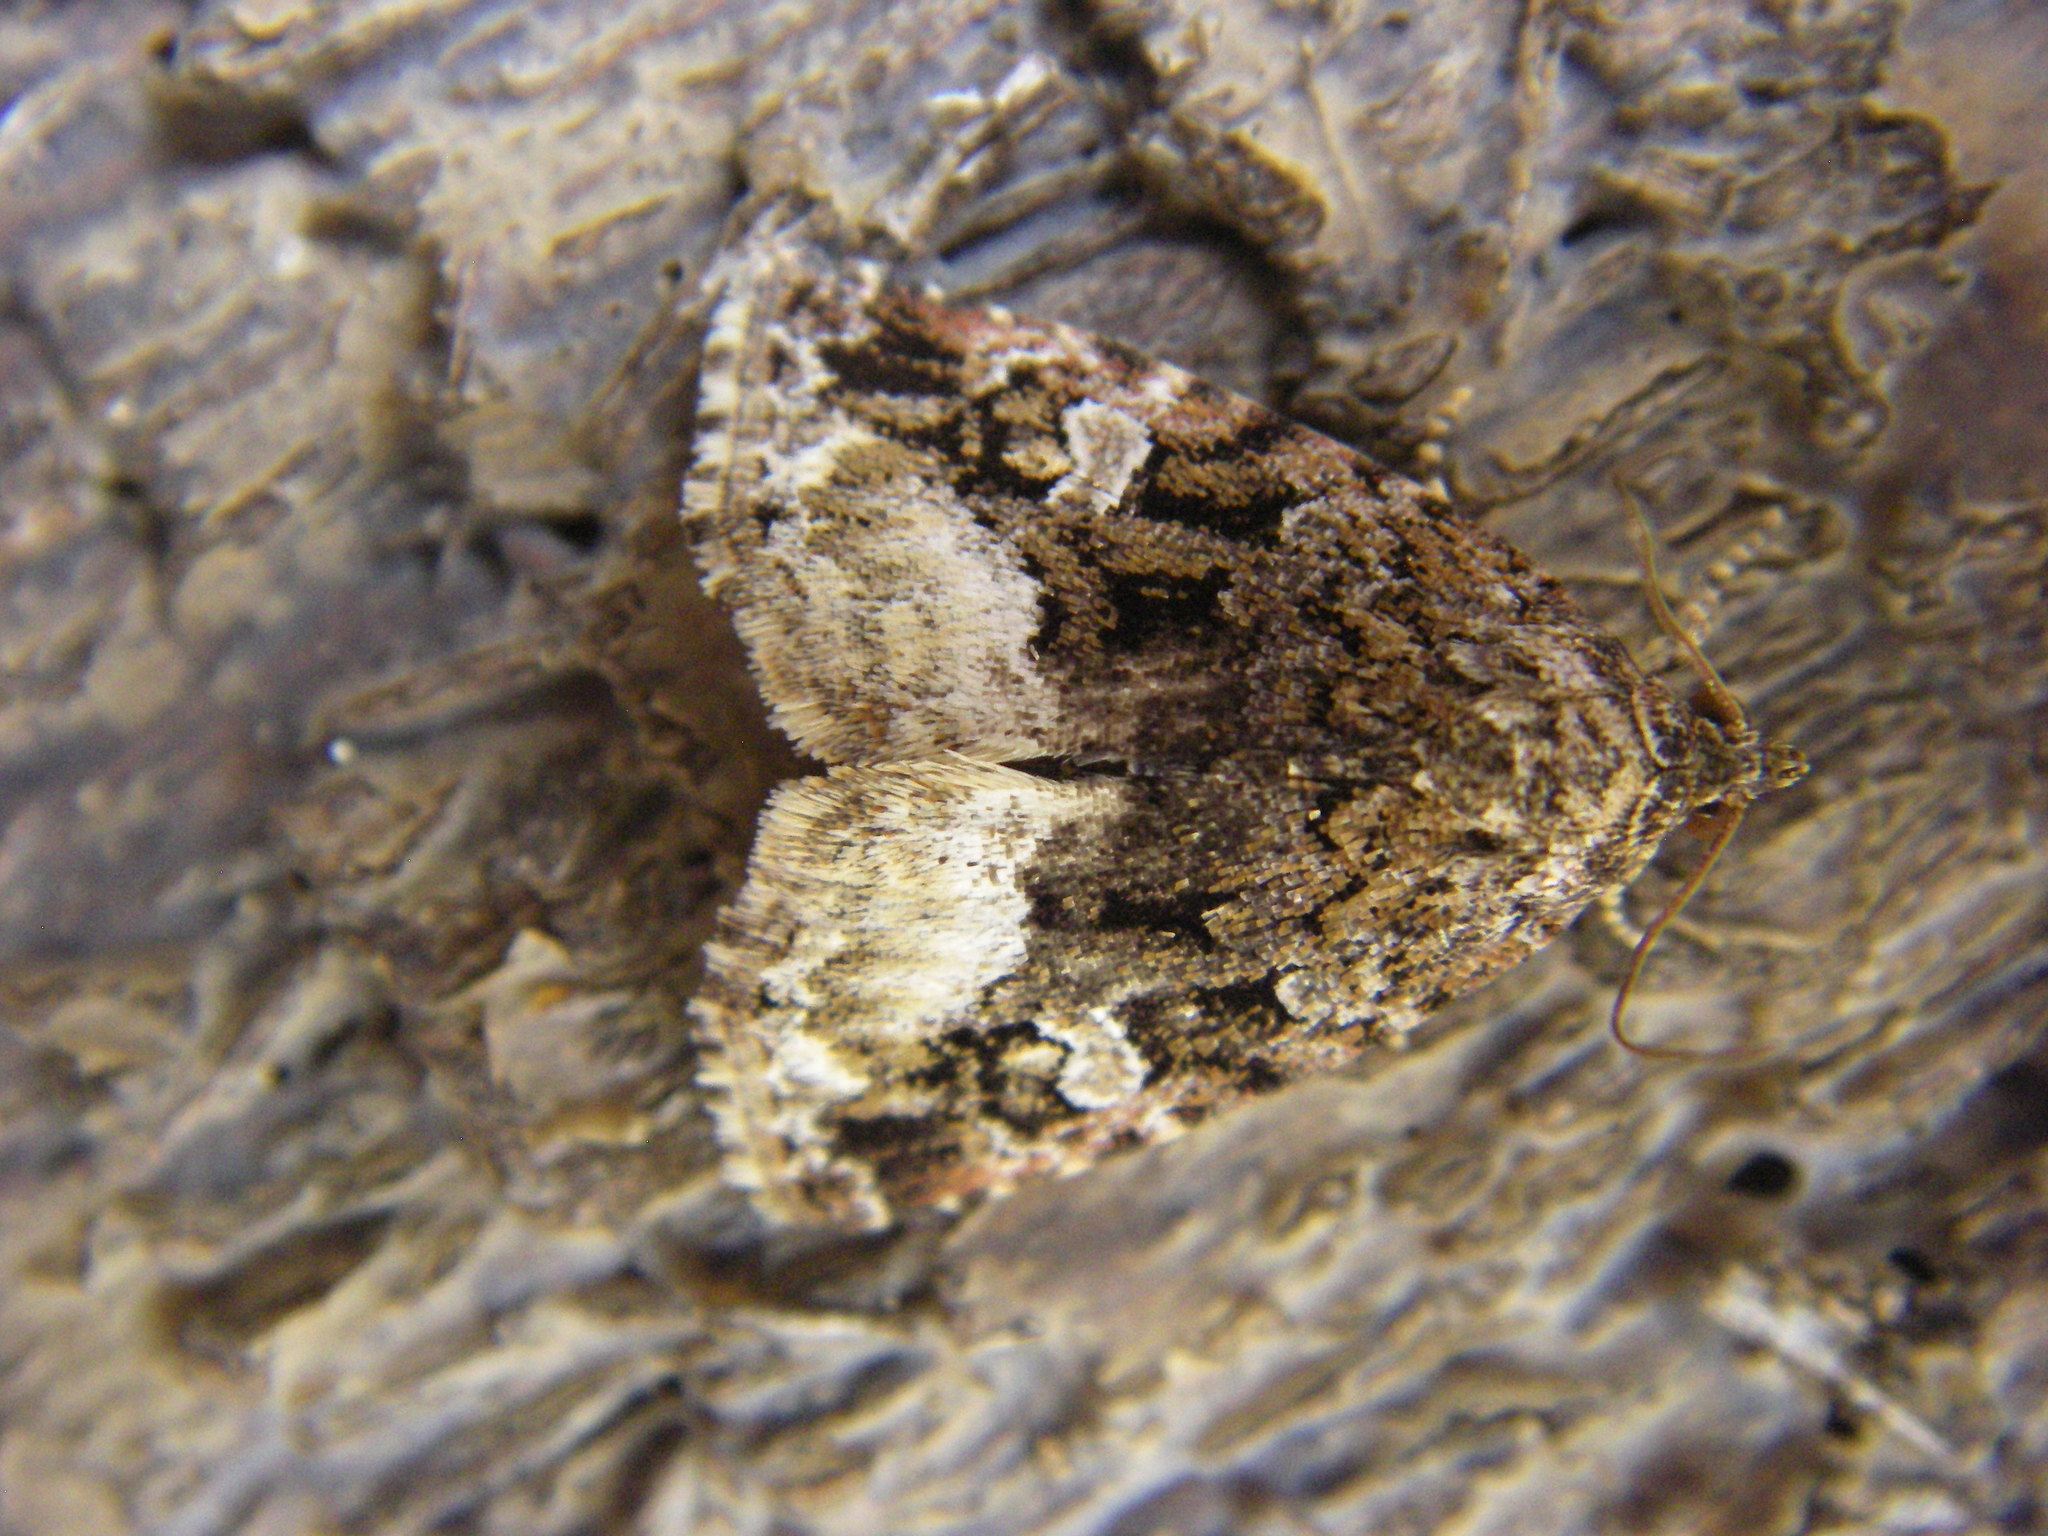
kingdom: Animalia
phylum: Arthropoda
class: Insecta
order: Lepidoptera
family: Noctuidae
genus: Deltote
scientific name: Deltote pygarga
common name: Marbled white spot
